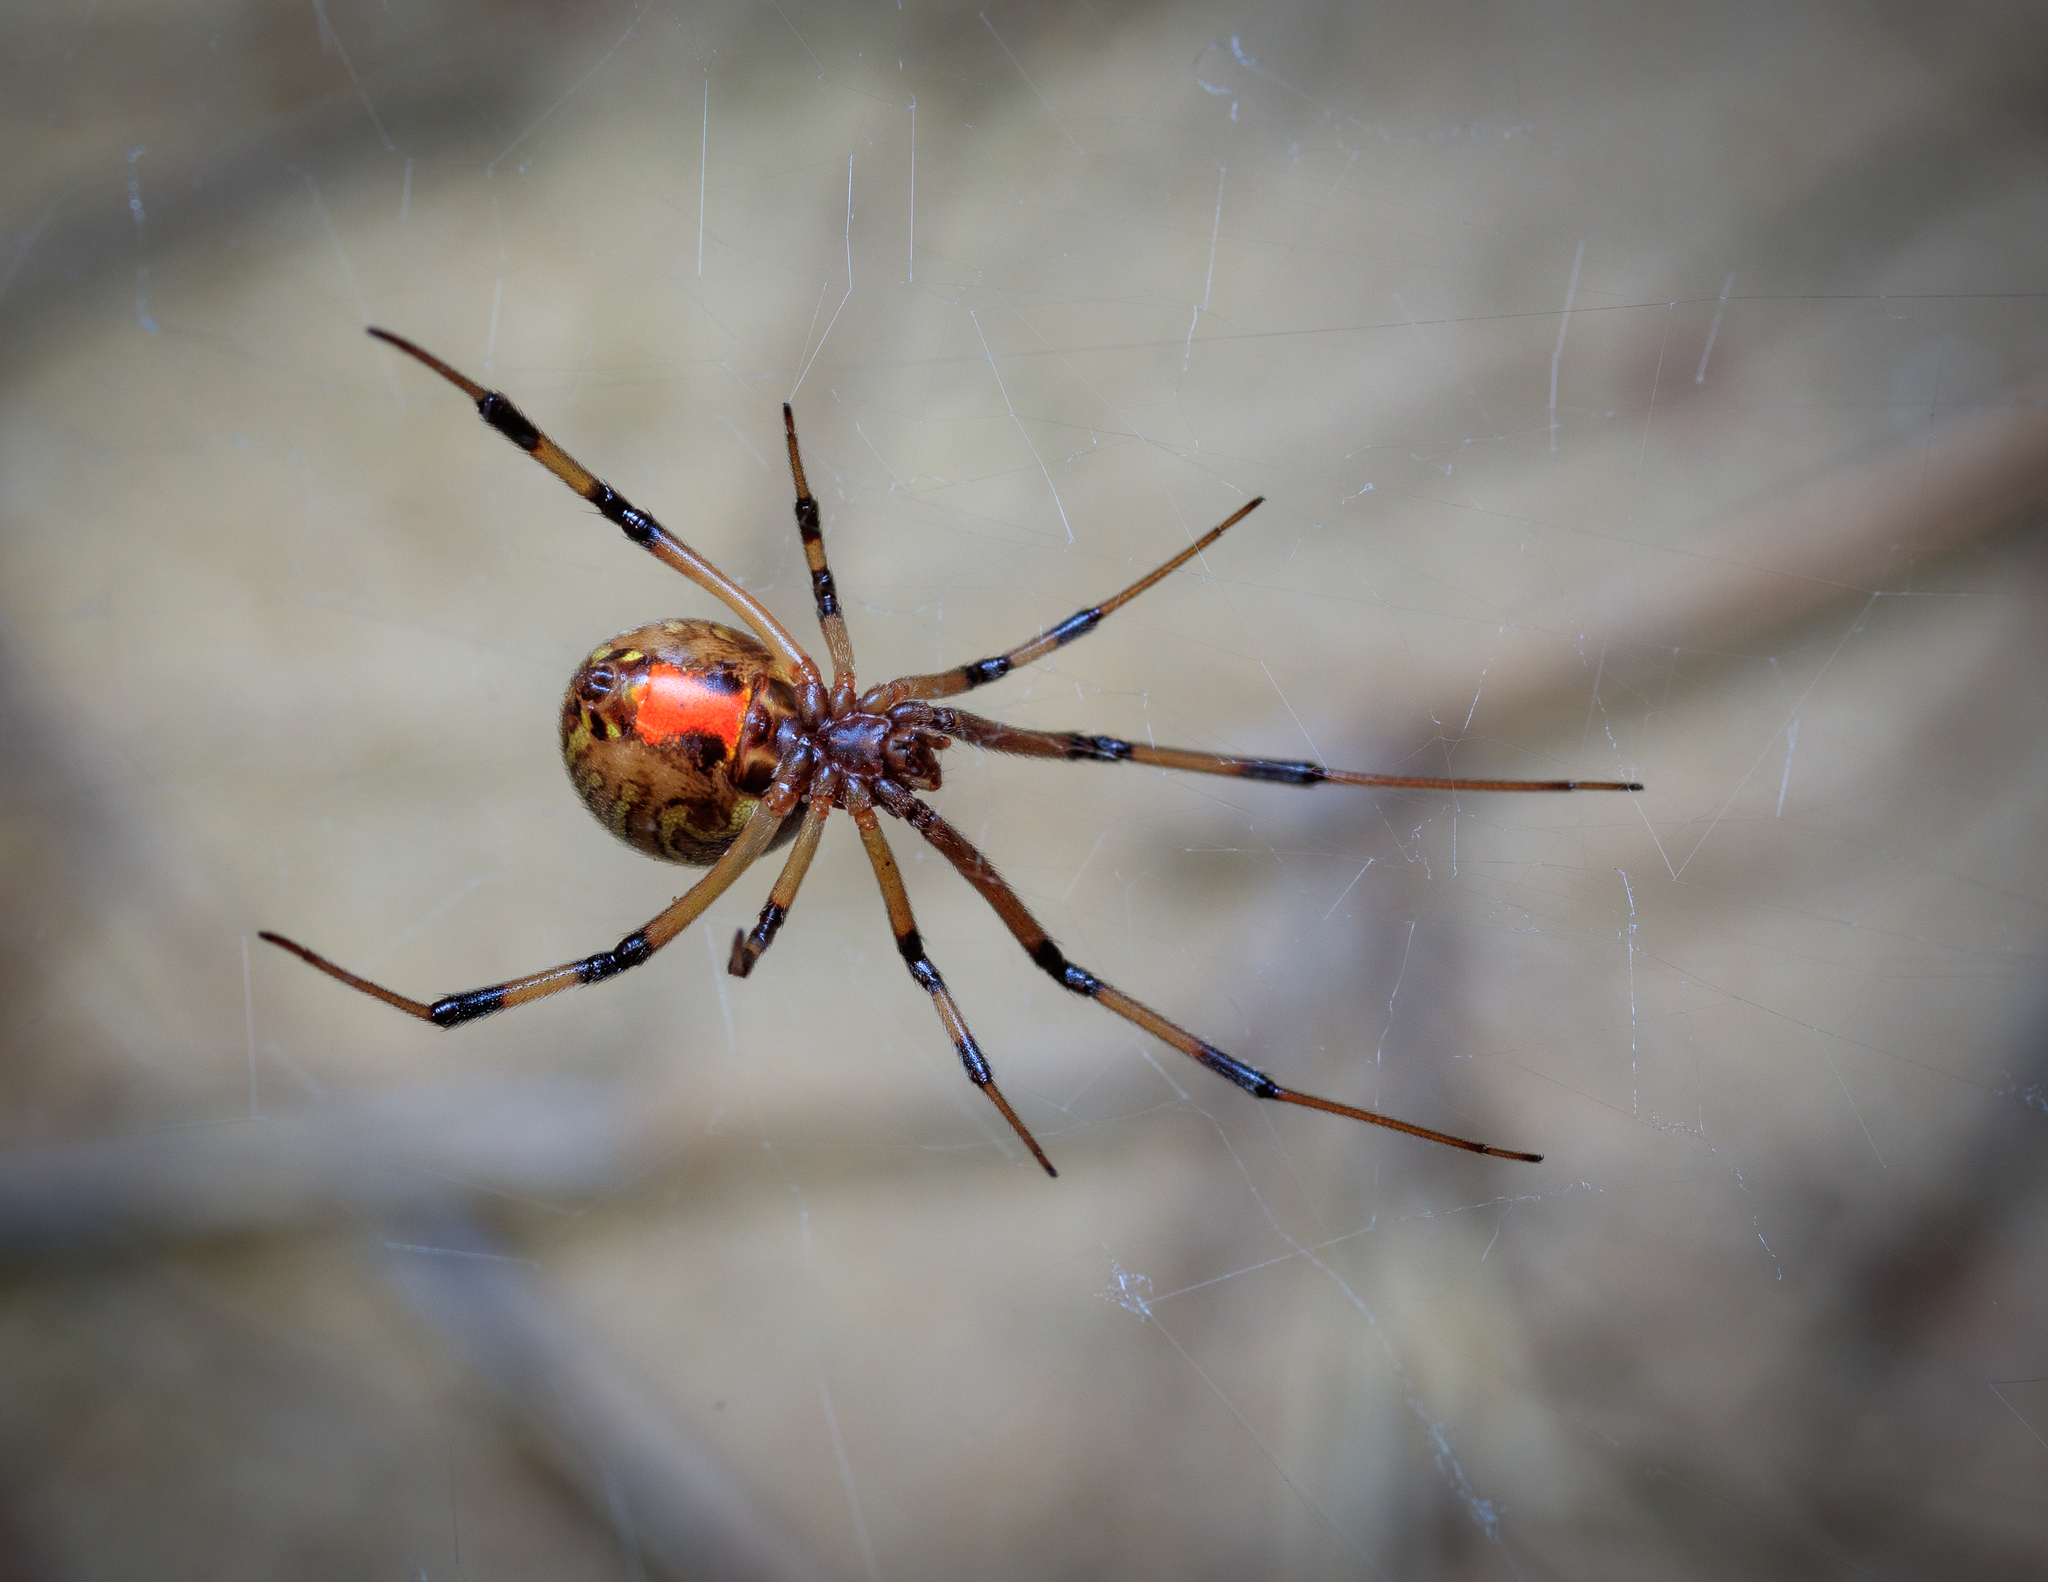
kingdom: Animalia
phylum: Arthropoda
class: Arachnida
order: Araneae
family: Theridiidae
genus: Latrodectus
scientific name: Latrodectus geometricus
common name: Brown widow spider
